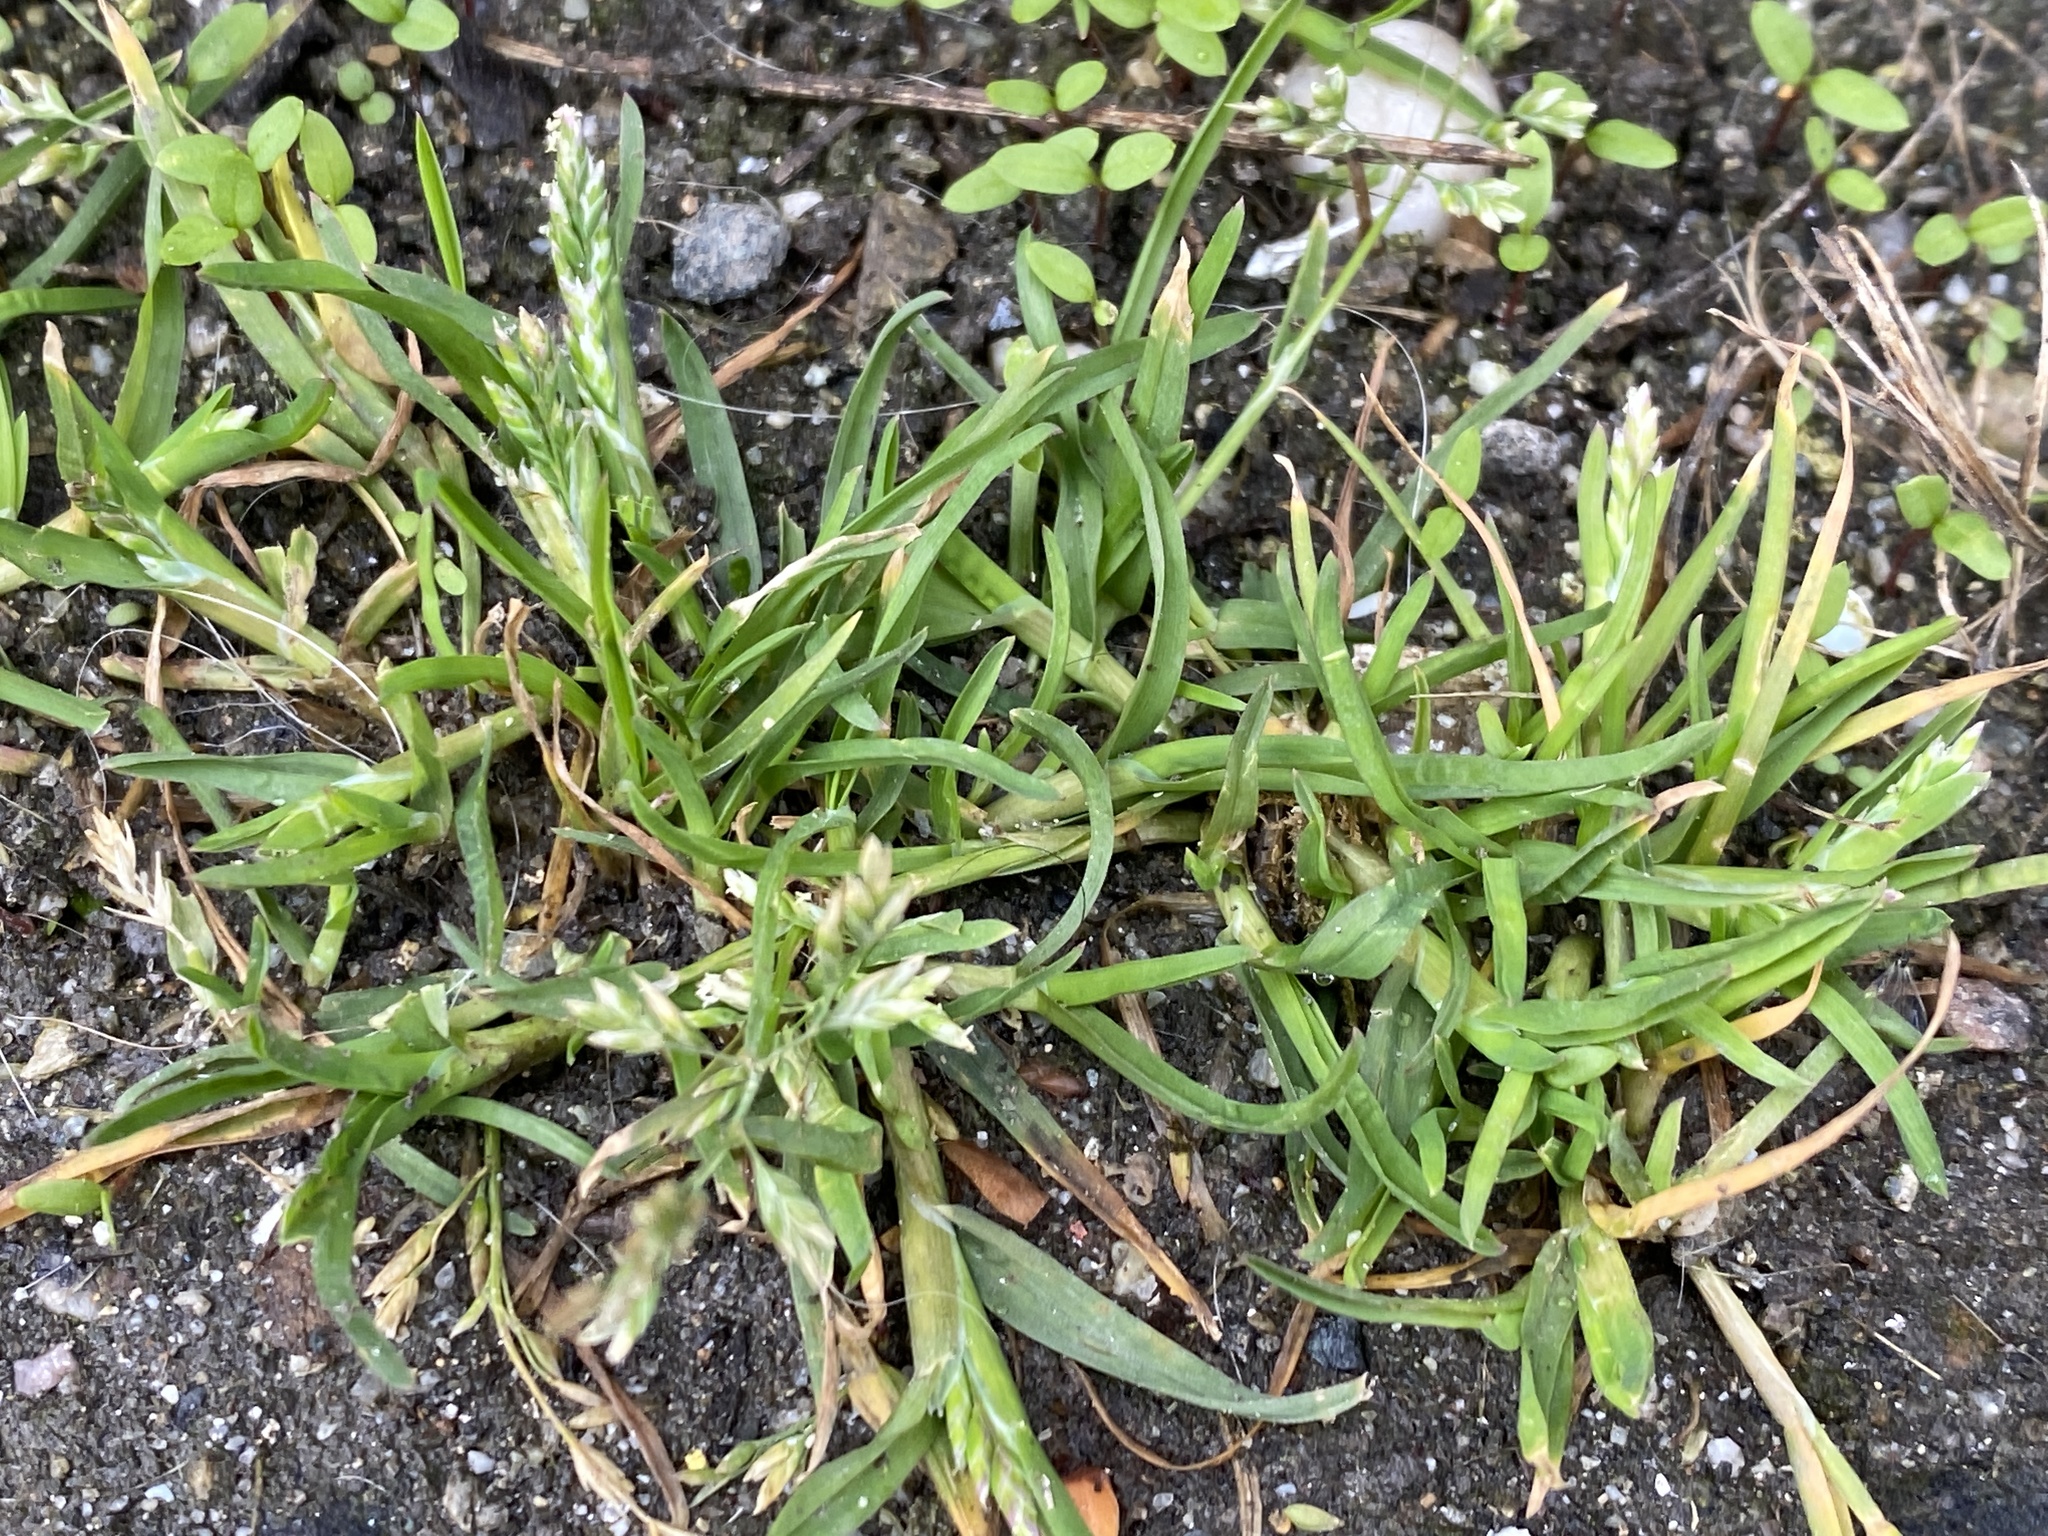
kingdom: Plantae
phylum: Tracheophyta
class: Liliopsida
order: Poales
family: Poaceae
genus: Poa
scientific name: Poa annua
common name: Annual bluegrass
